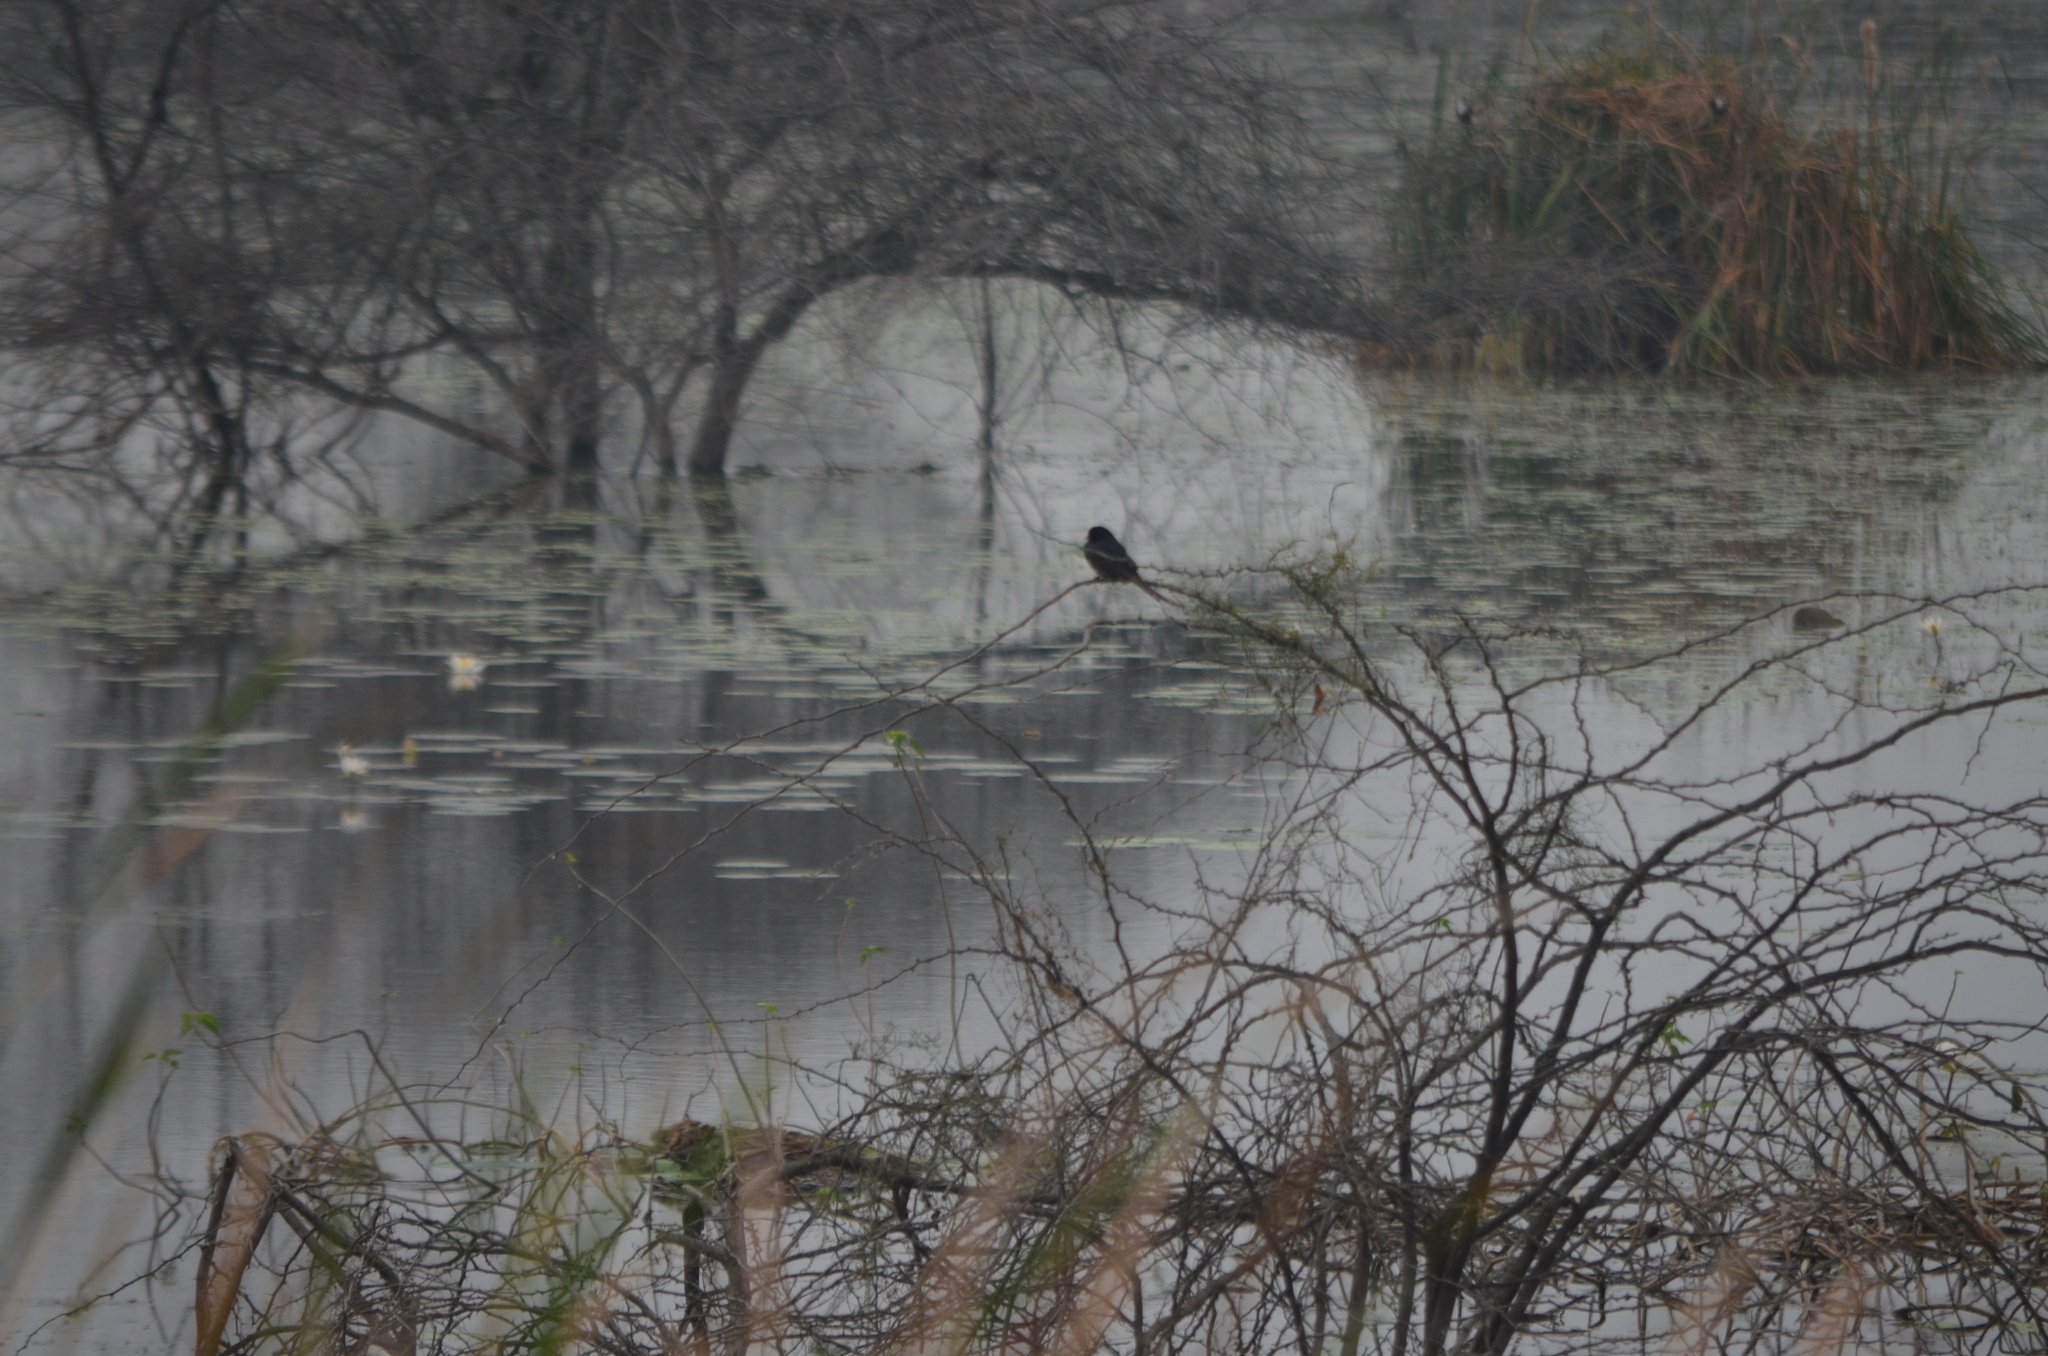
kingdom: Animalia
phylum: Chordata
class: Aves
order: Passeriformes
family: Dicruridae
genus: Dicrurus
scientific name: Dicrurus macrocercus
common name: Black drongo
